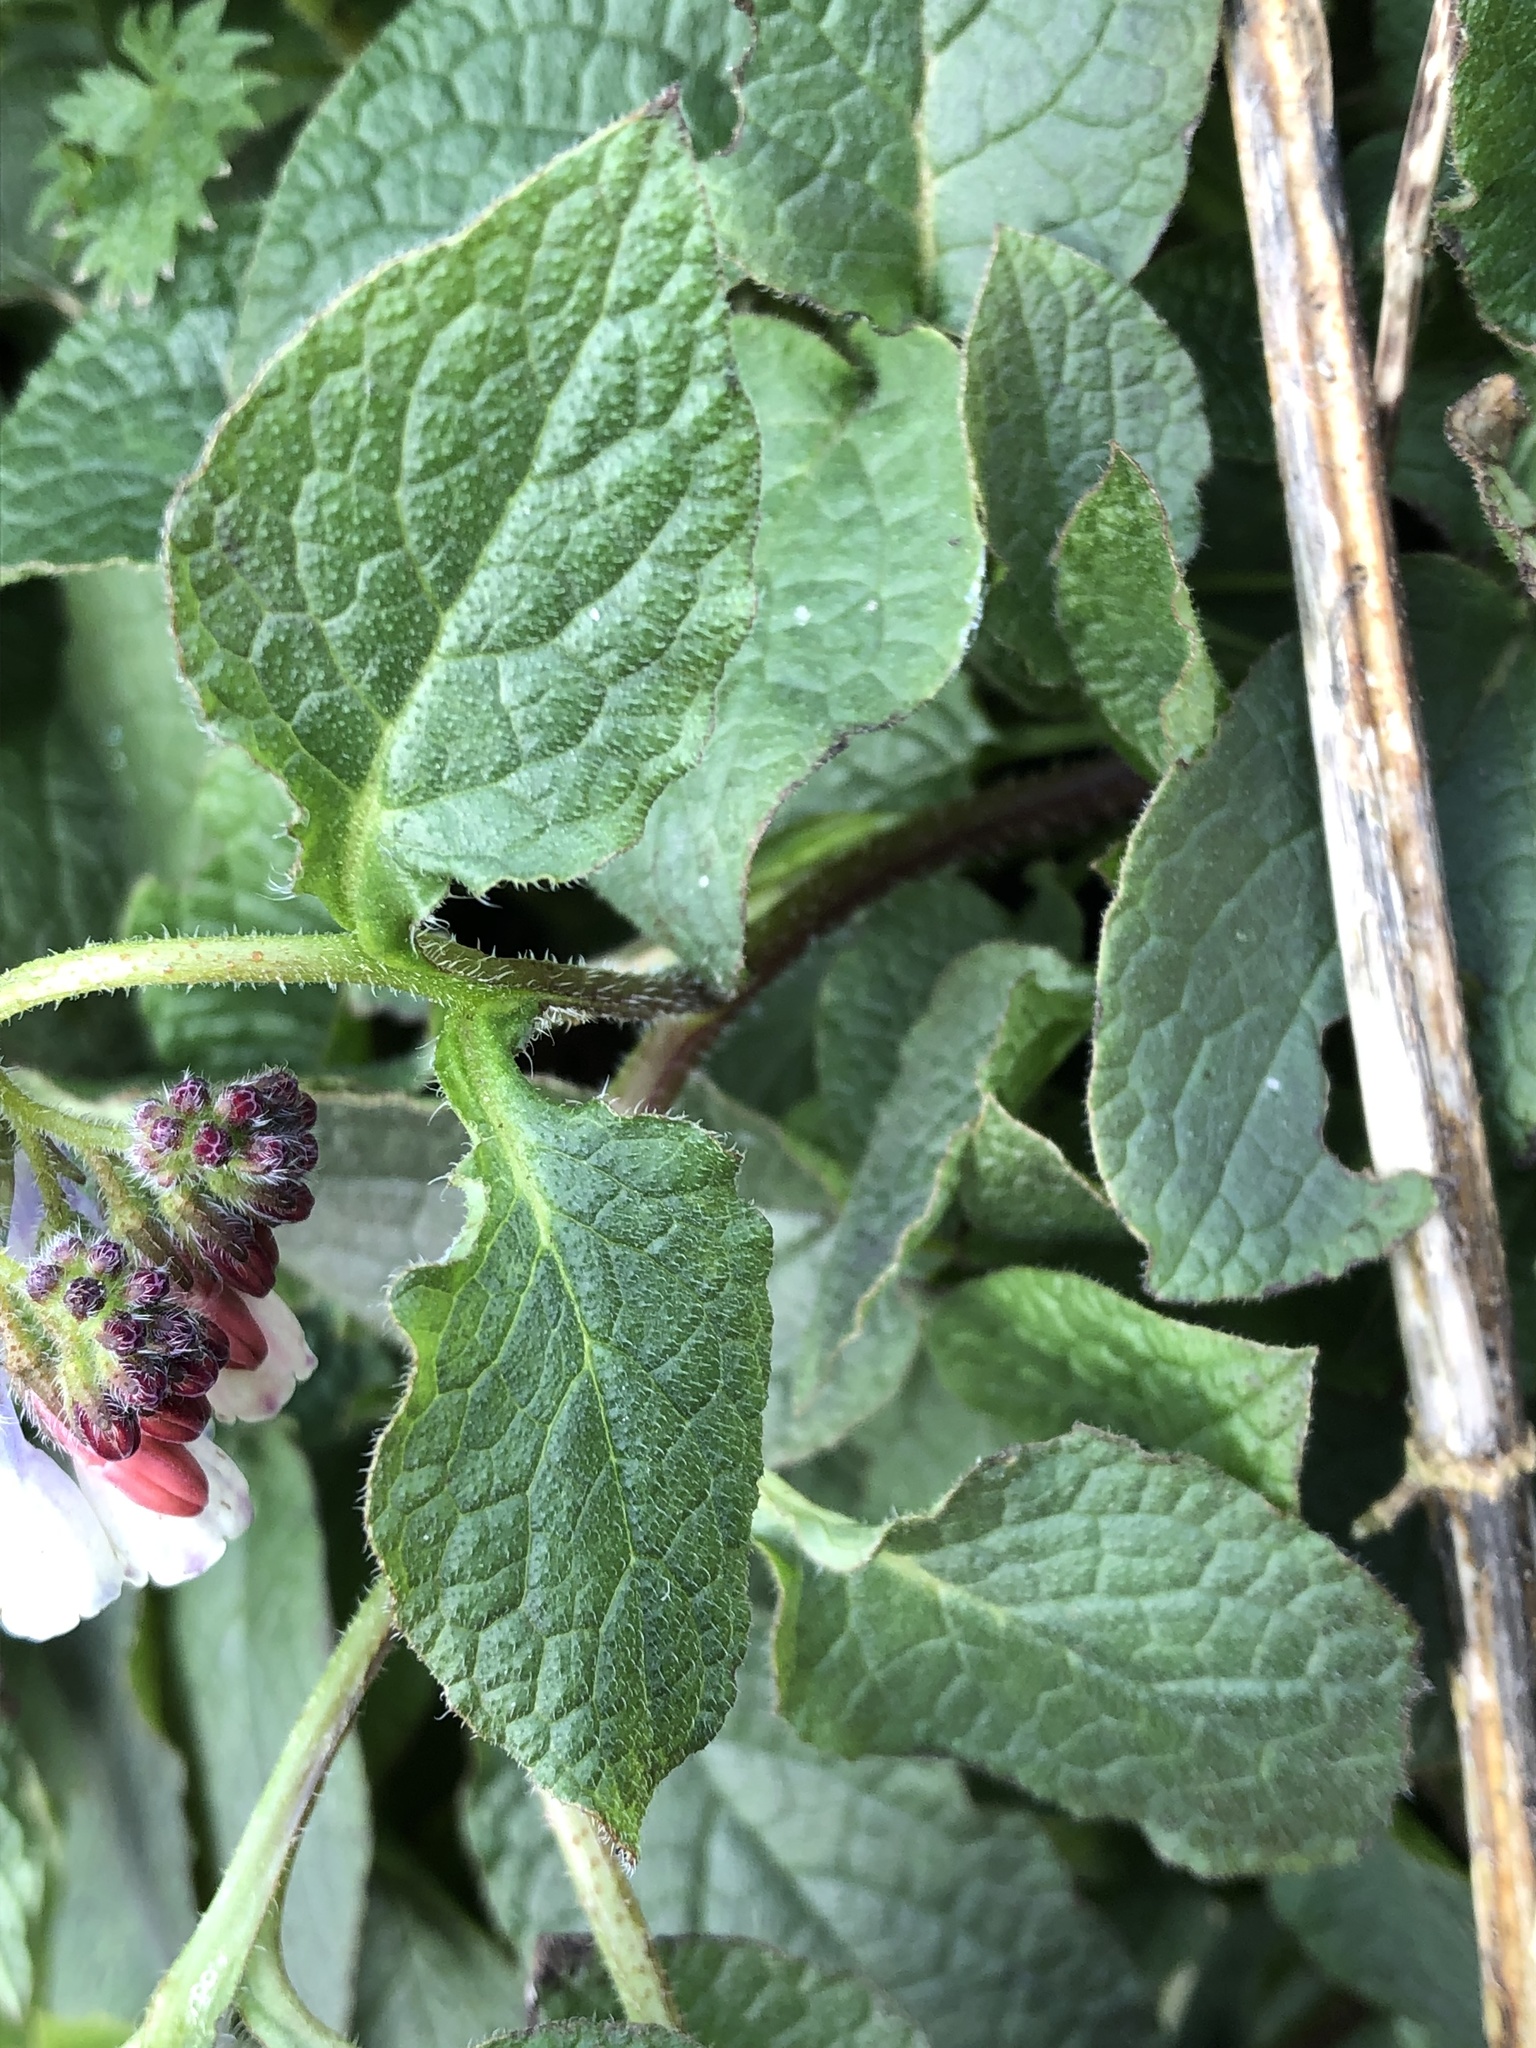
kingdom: Plantae
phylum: Tracheophyta
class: Magnoliopsida
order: Boraginales
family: Boraginaceae
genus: Symphytum
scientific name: Symphytum hidcotense
